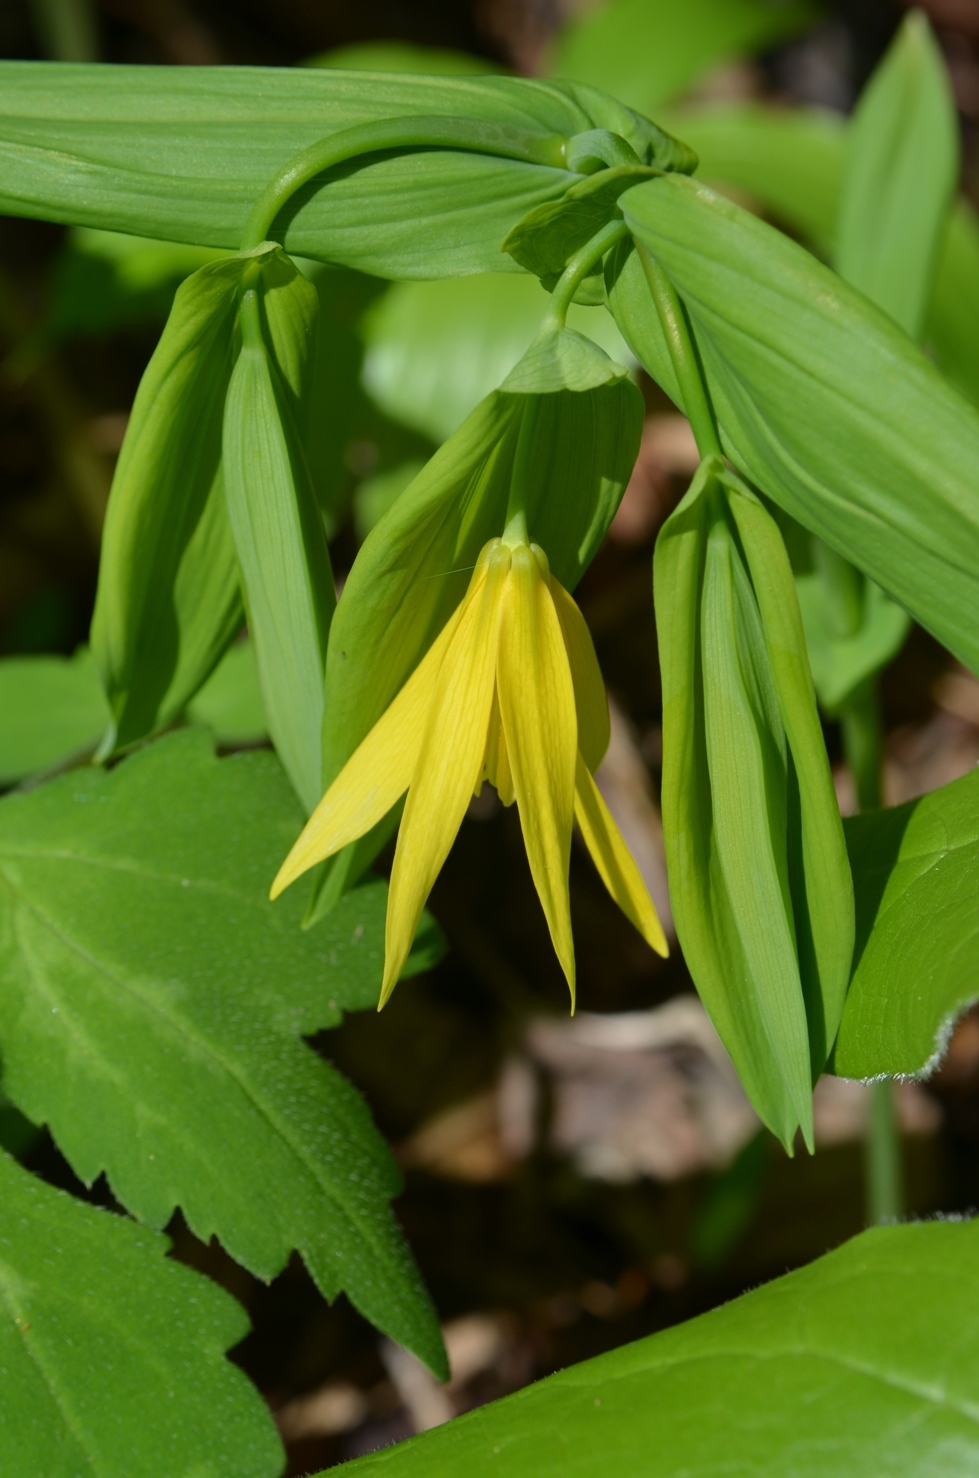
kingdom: Plantae
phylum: Tracheophyta
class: Liliopsida
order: Liliales
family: Colchicaceae
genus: Uvularia
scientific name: Uvularia grandiflora
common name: Bellwort
